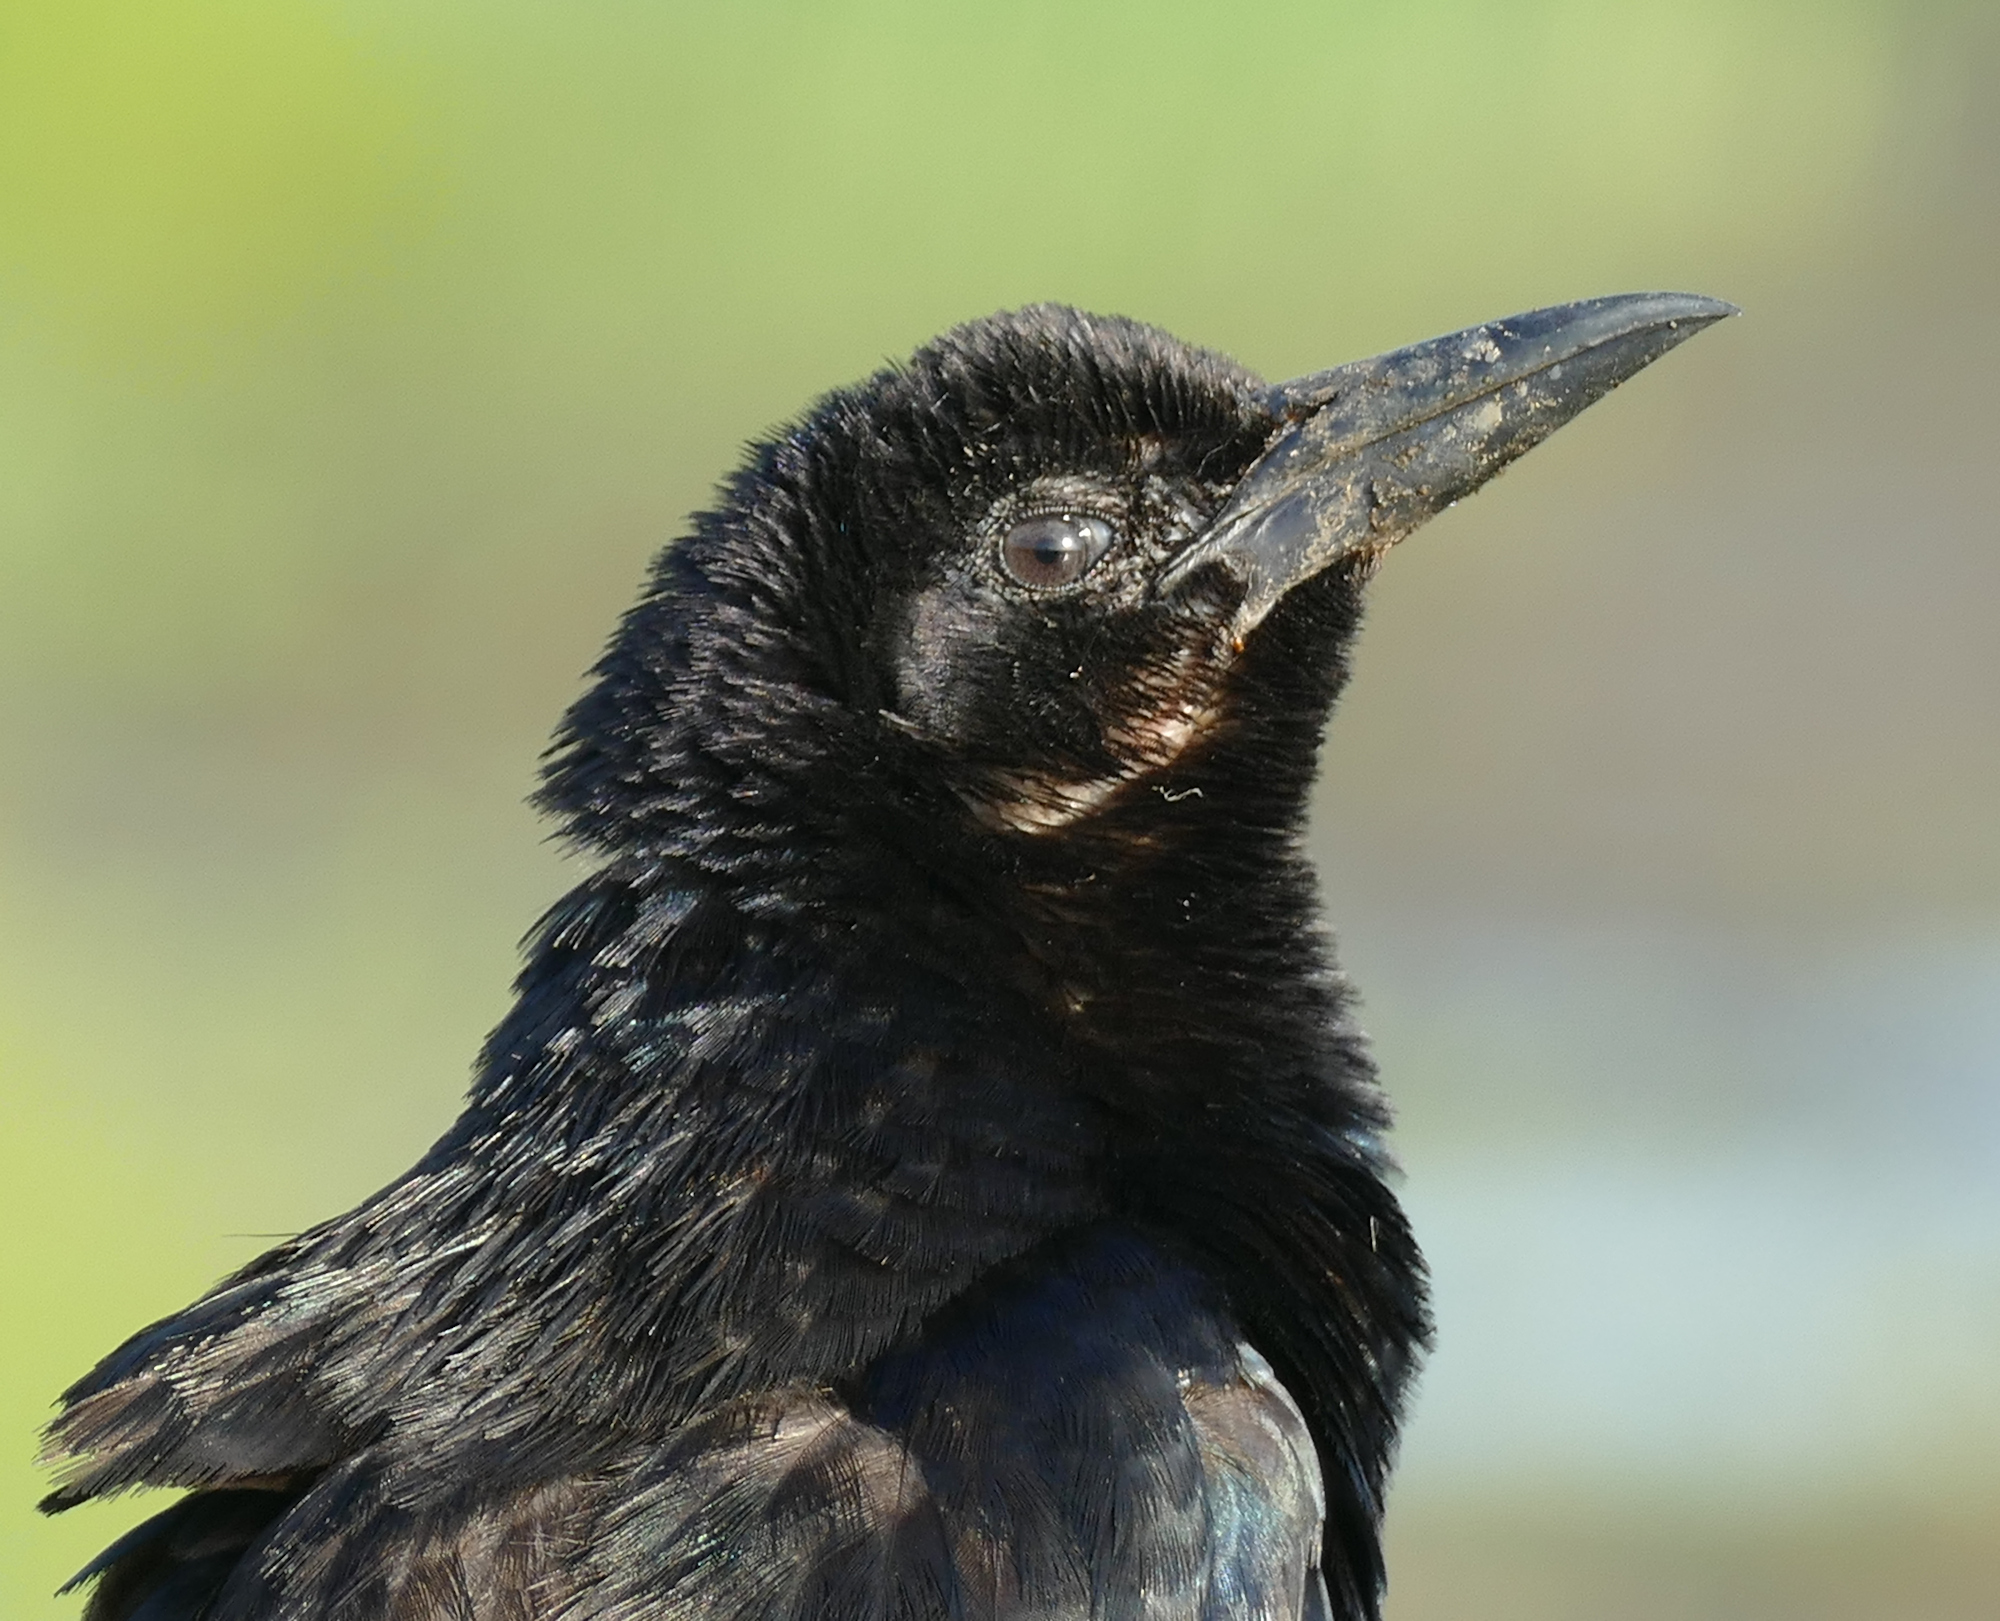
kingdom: Animalia
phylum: Chordata
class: Aves
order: Passeriformes
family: Icteridae
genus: Quiscalus
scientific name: Quiscalus major
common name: Boat-tailed grackle
